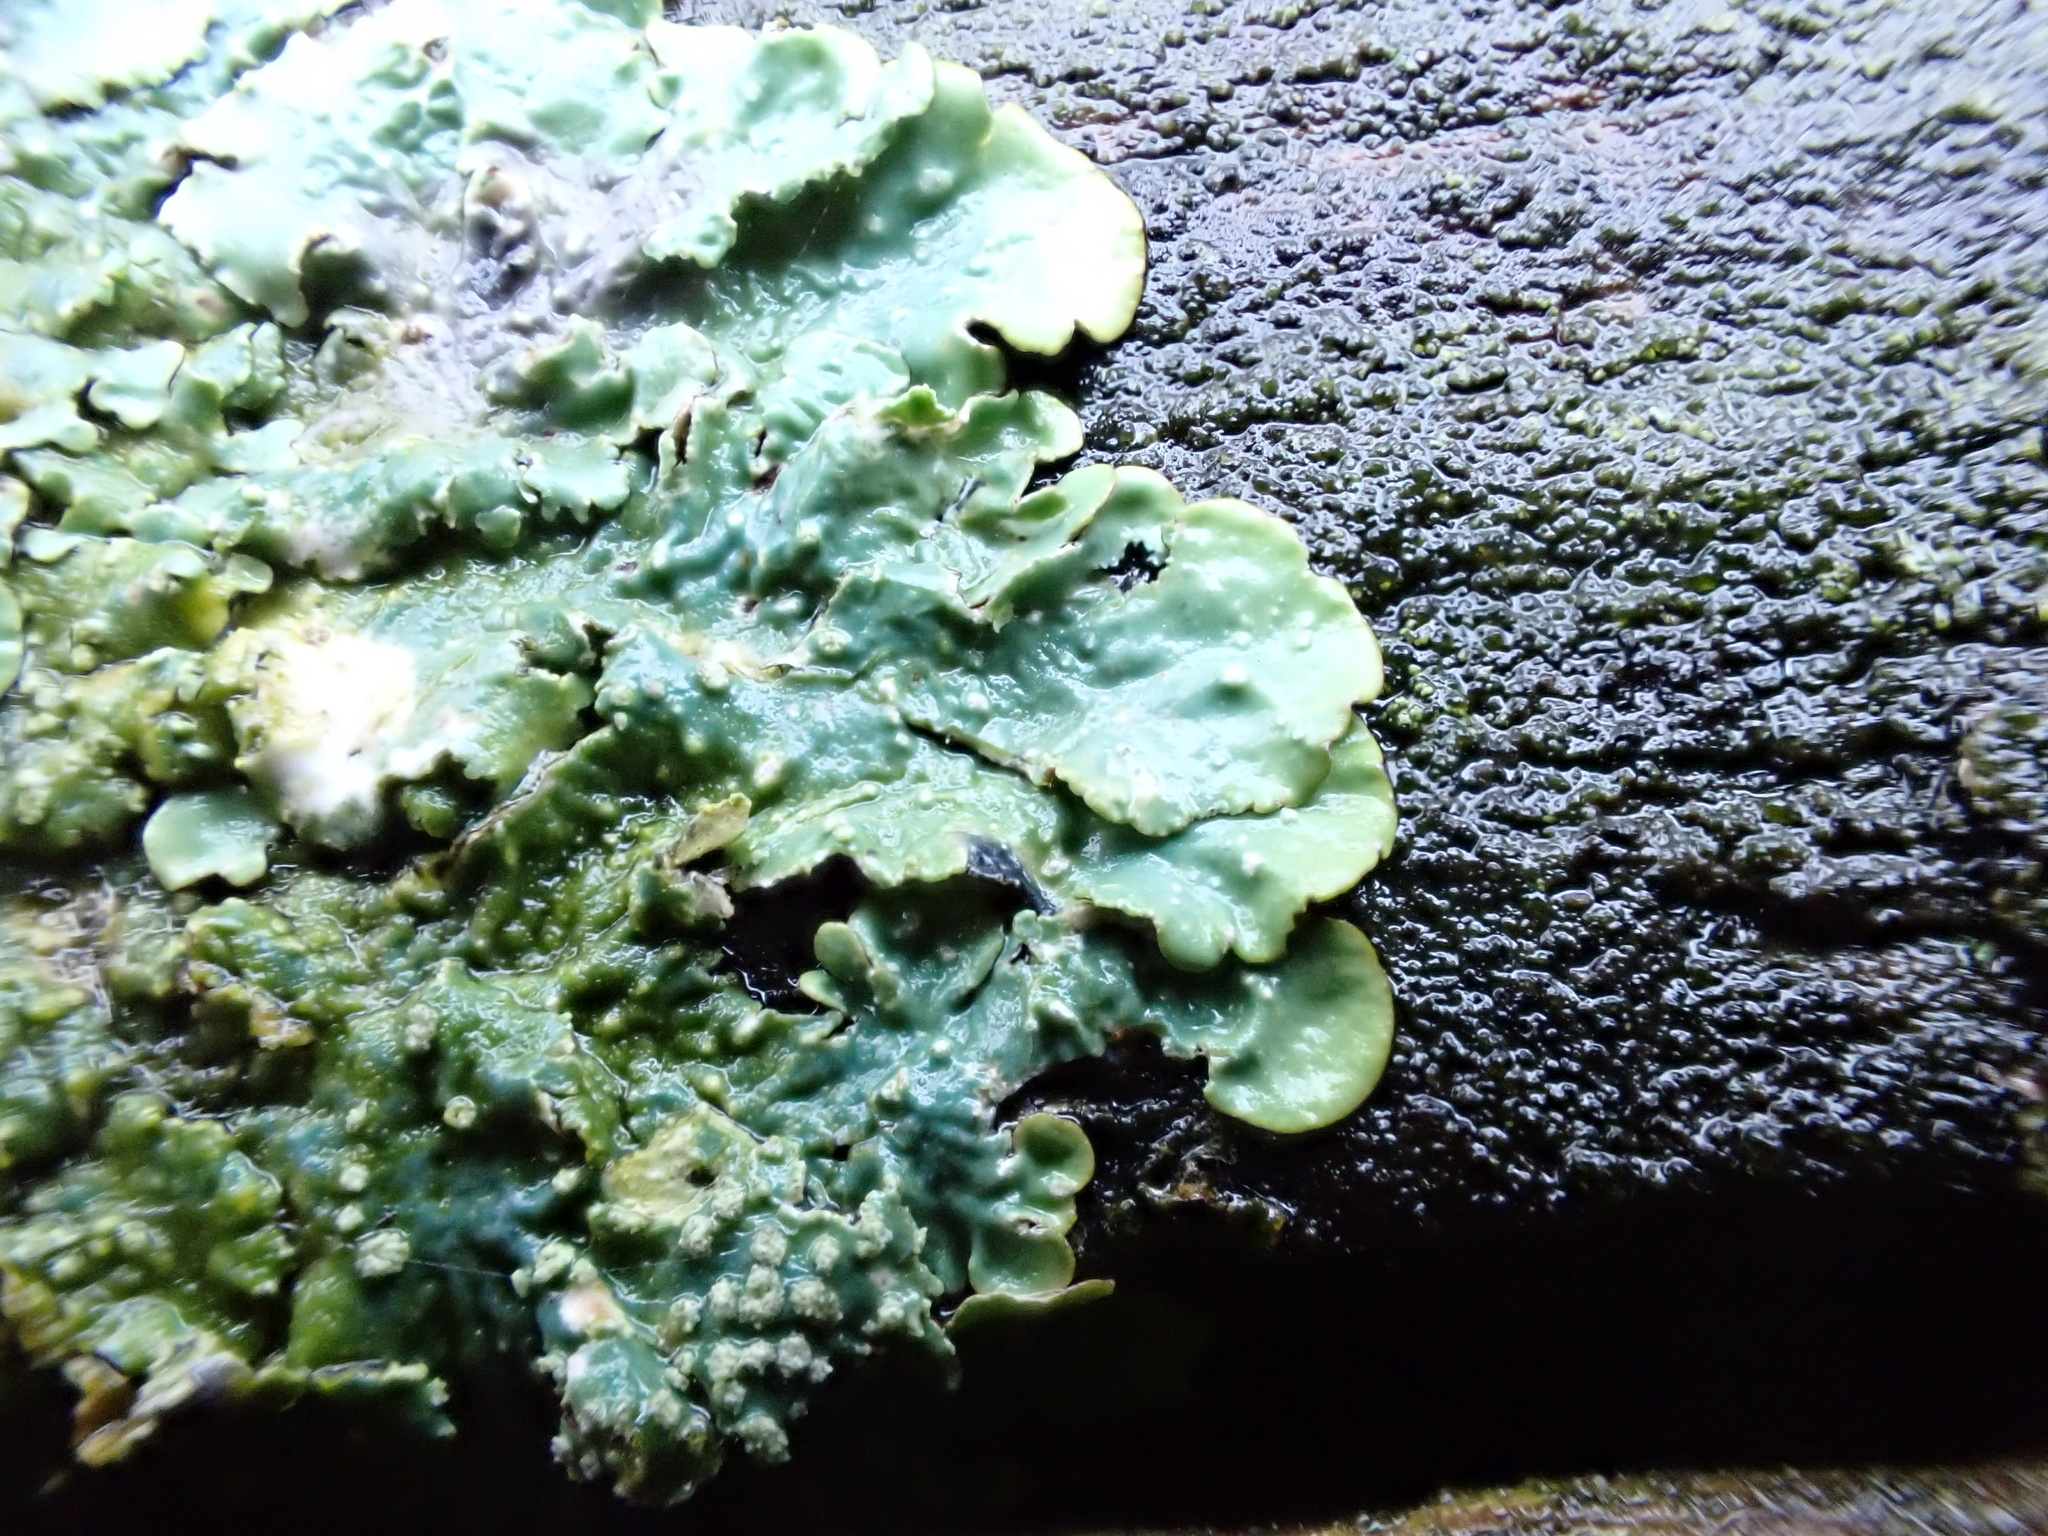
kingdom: Fungi
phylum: Ascomycota
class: Lecanoromycetes
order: Lecanorales
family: Parmeliaceae
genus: Punctelia
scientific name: Punctelia subrudecta
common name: Powdered speckled shield lichen
